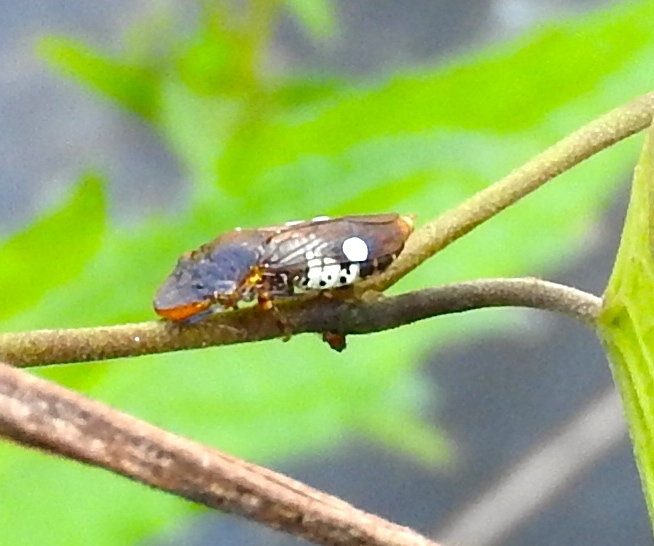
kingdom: Animalia
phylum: Arthropoda
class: Insecta
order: Hemiptera
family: Cicadellidae
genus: Homalodisca
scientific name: Homalodisca ichthyocephala
